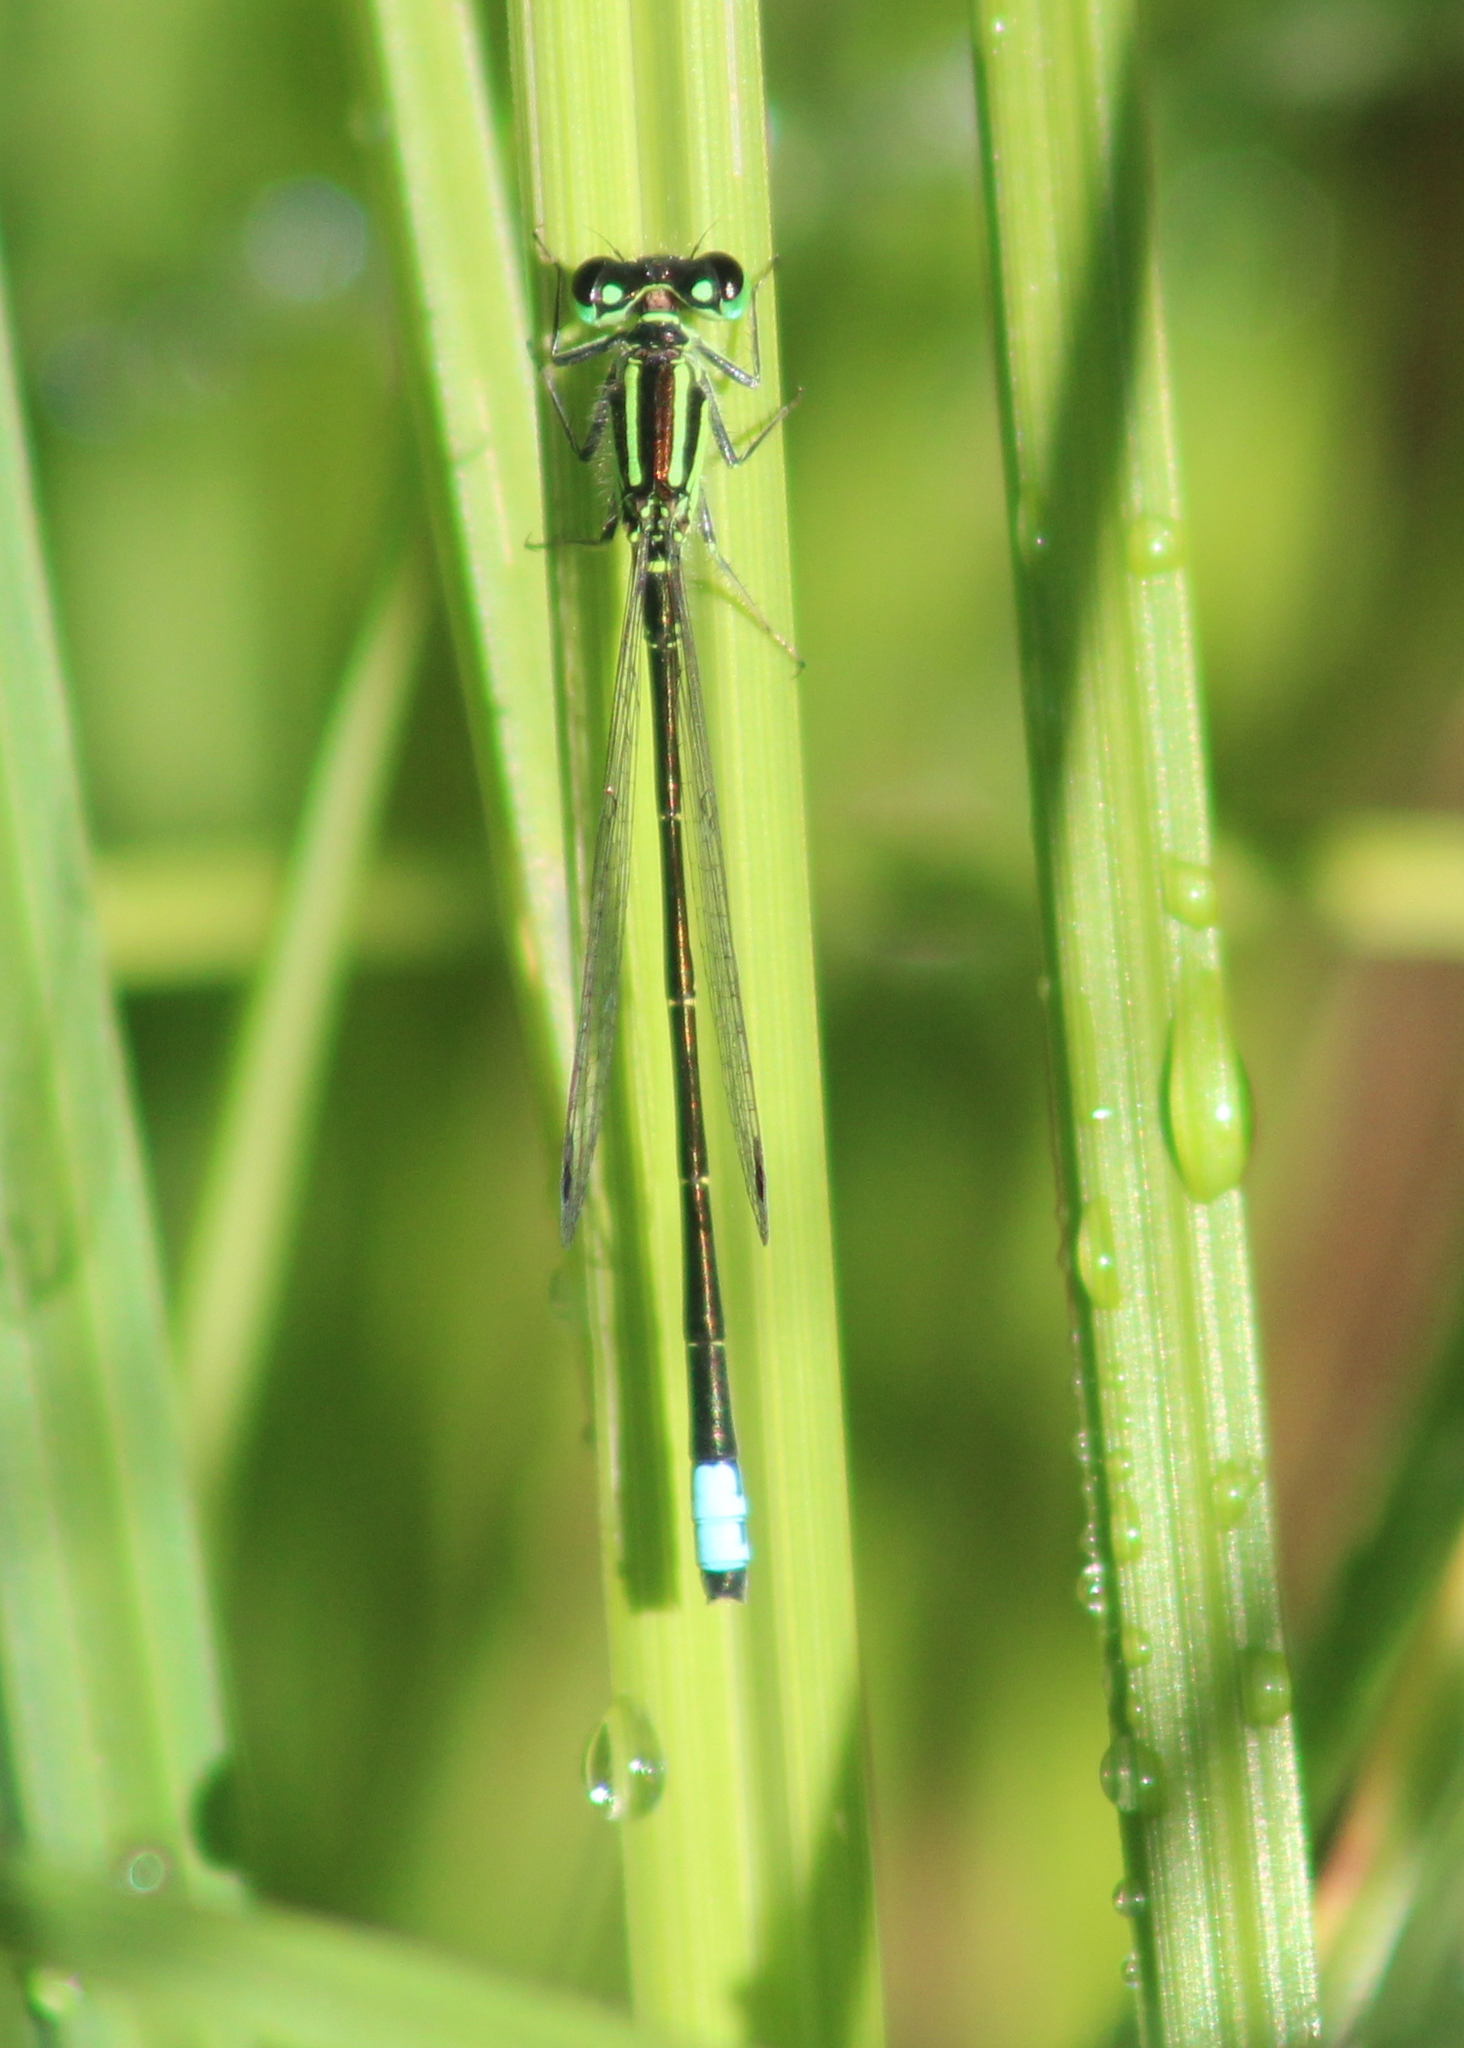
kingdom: Animalia
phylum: Arthropoda
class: Insecta
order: Odonata
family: Coenagrionidae
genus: Ischnura
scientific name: Ischnura verticalis
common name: Eastern forktail
